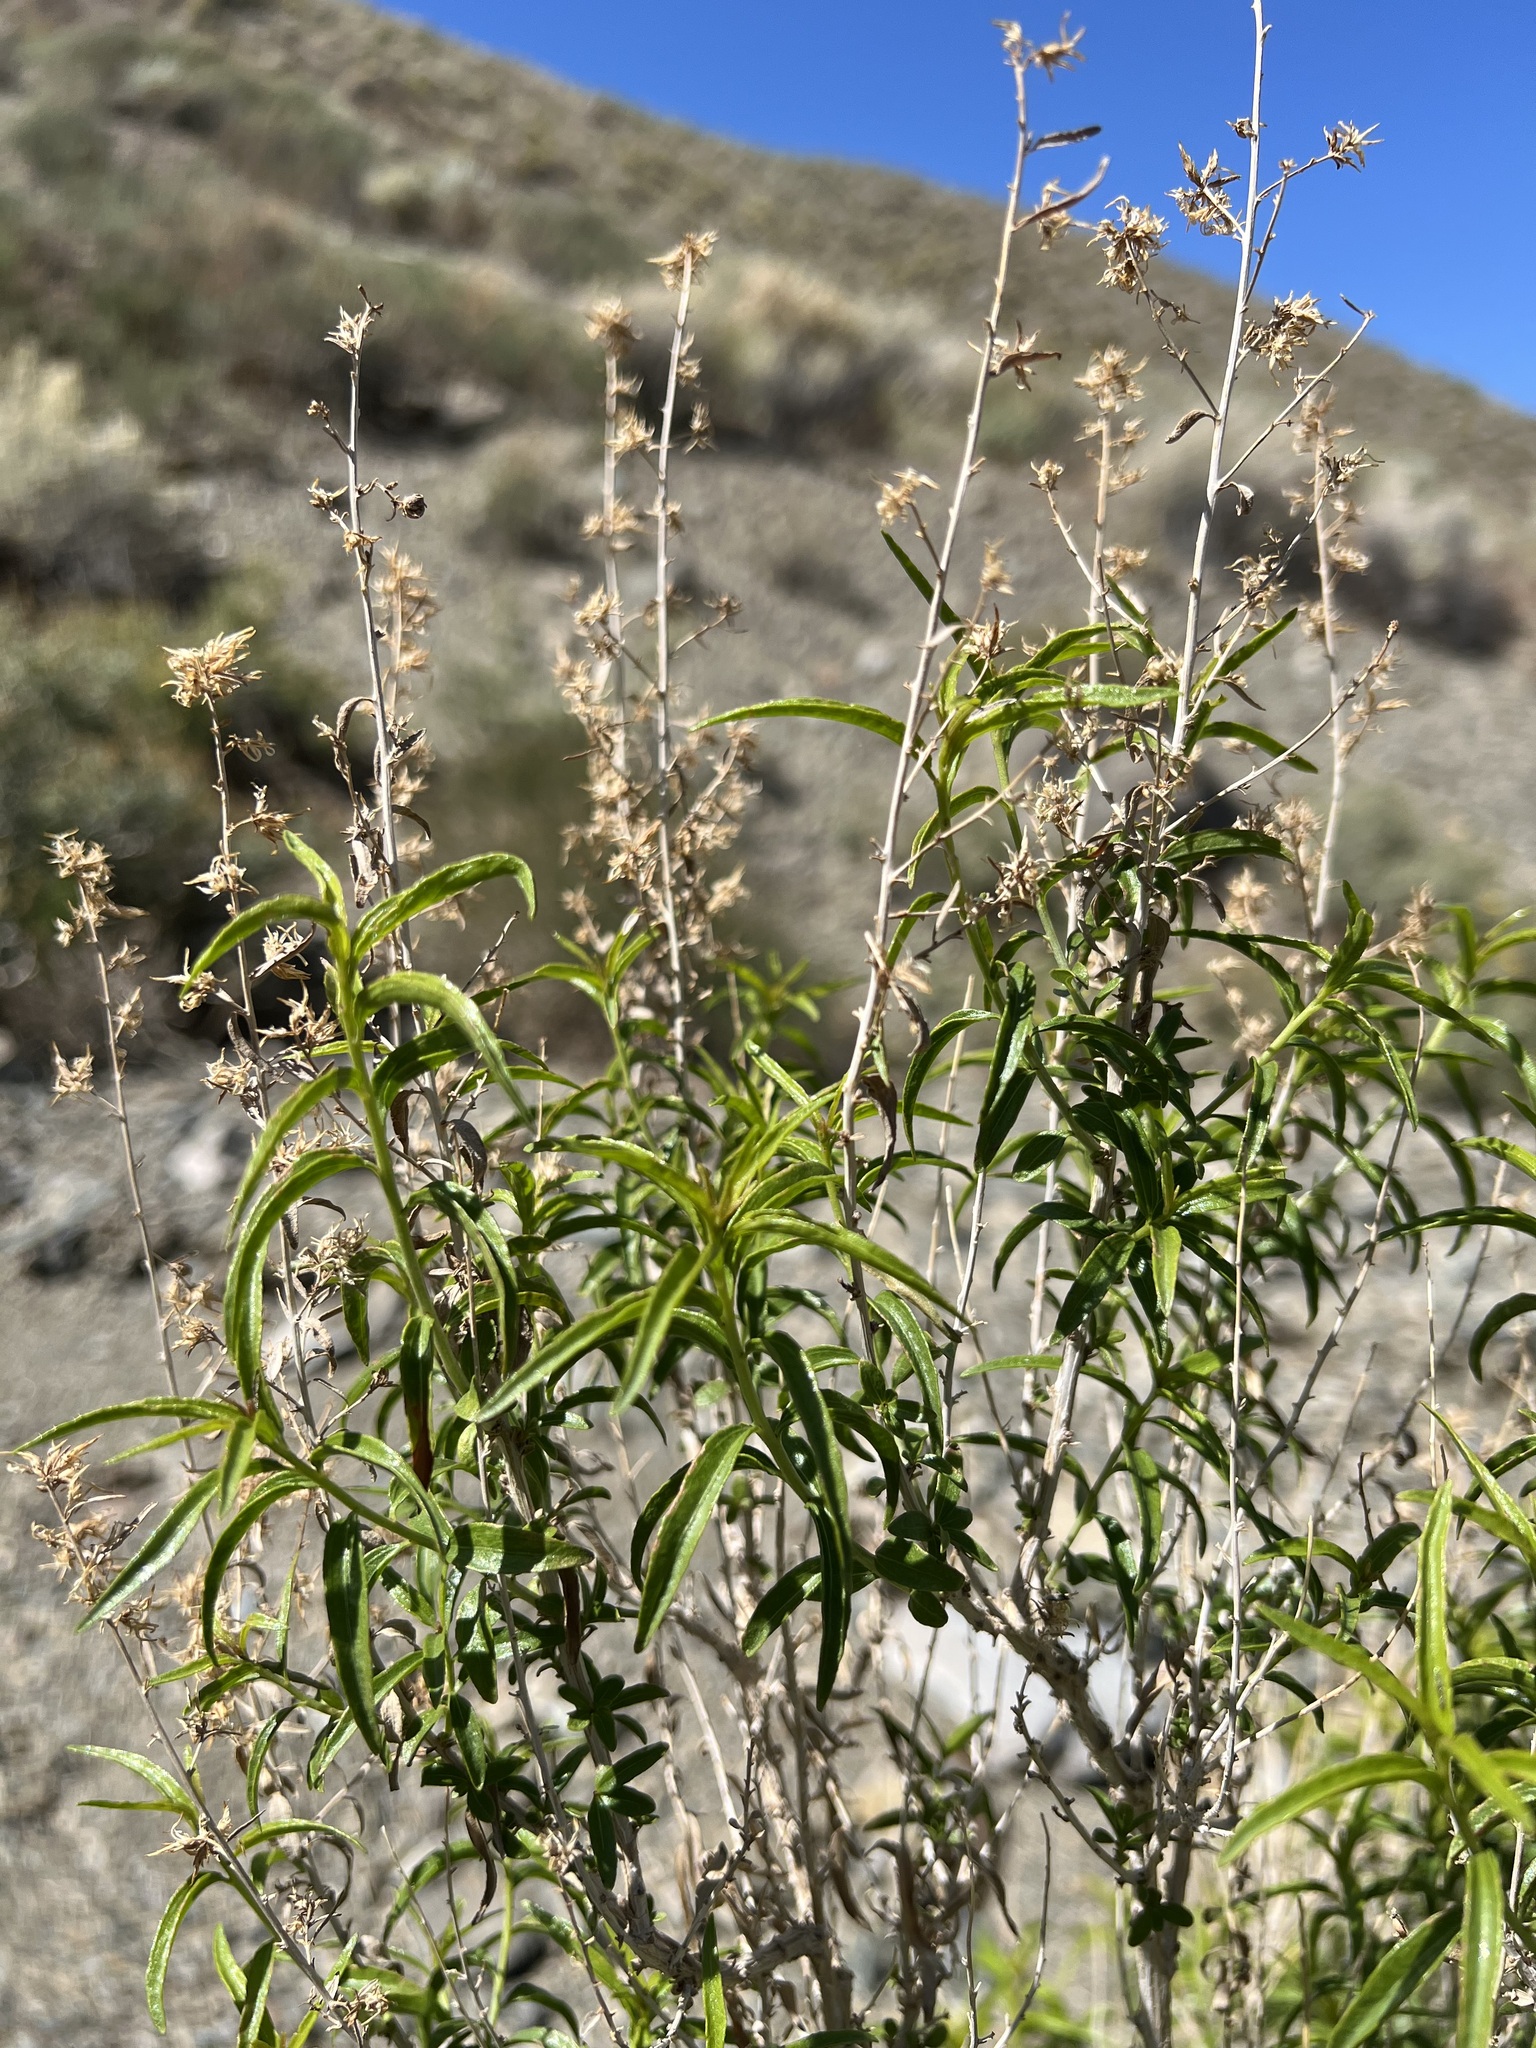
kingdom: Plantae
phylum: Tracheophyta
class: Magnoliopsida
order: Asterales
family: Asteraceae
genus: Brickellia
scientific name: Brickellia longifolia
